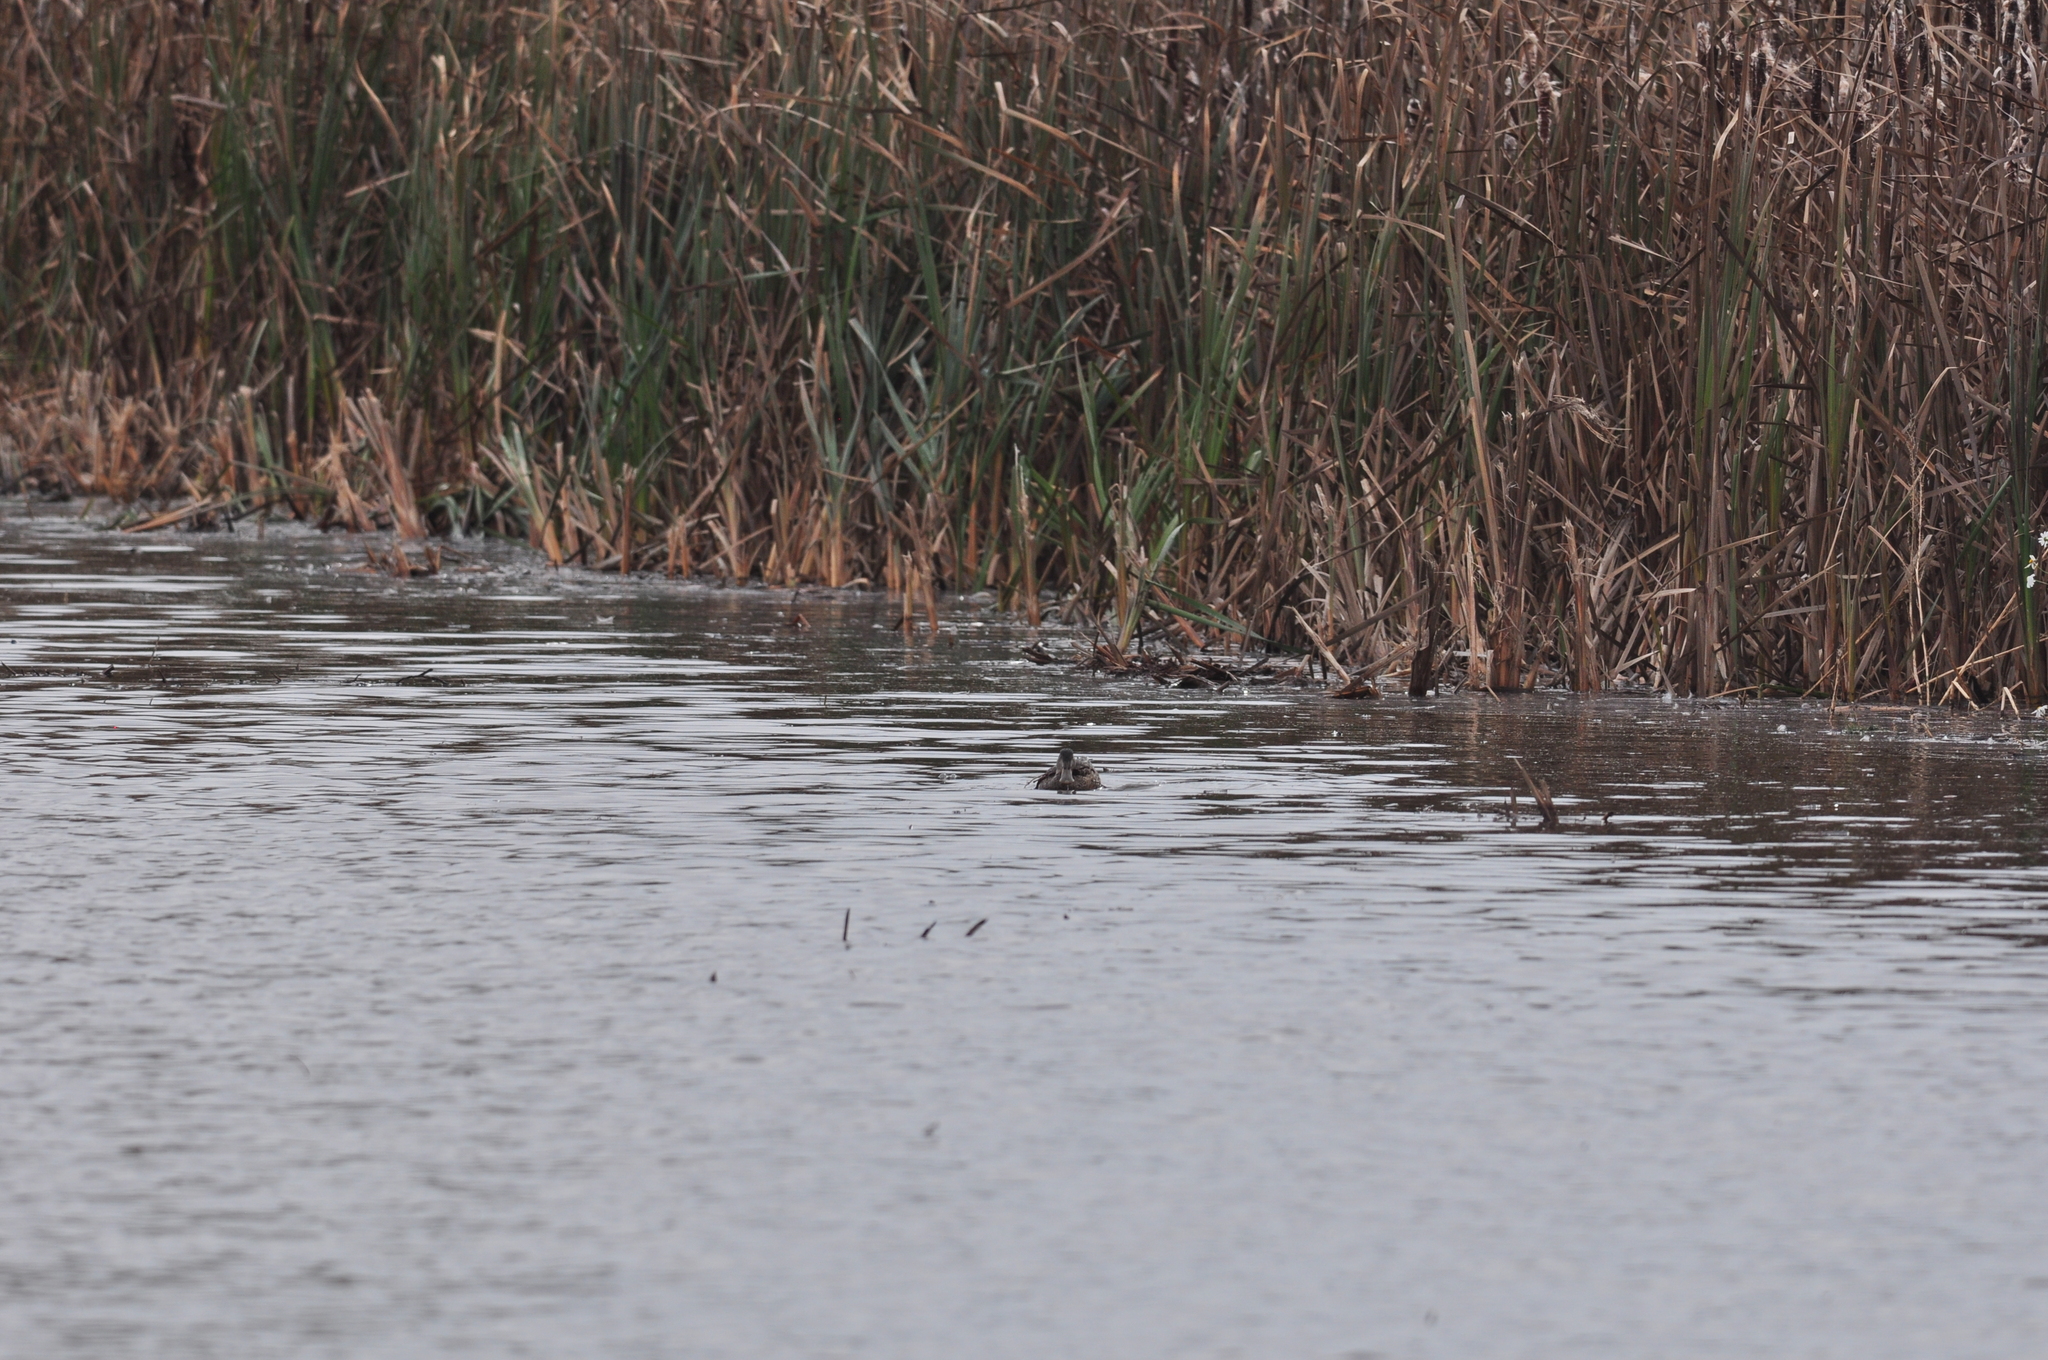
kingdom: Animalia
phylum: Chordata
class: Aves
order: Anseriformes
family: Anatidae
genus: Spatula
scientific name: Spatula clypeata
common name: Northern shoveler
